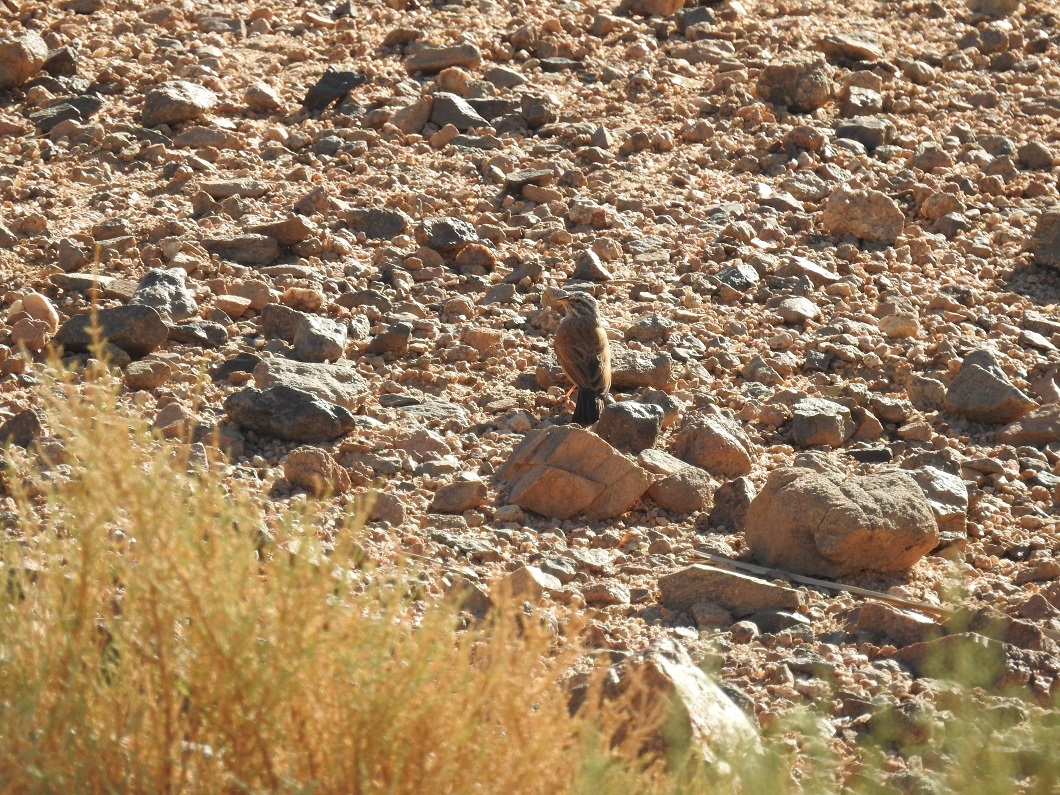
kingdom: Animalia
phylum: Chordata
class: Aves
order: Passeriformes
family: Emberizidae
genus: Emberiza
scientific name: Emberiza sahari
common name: House bunting
